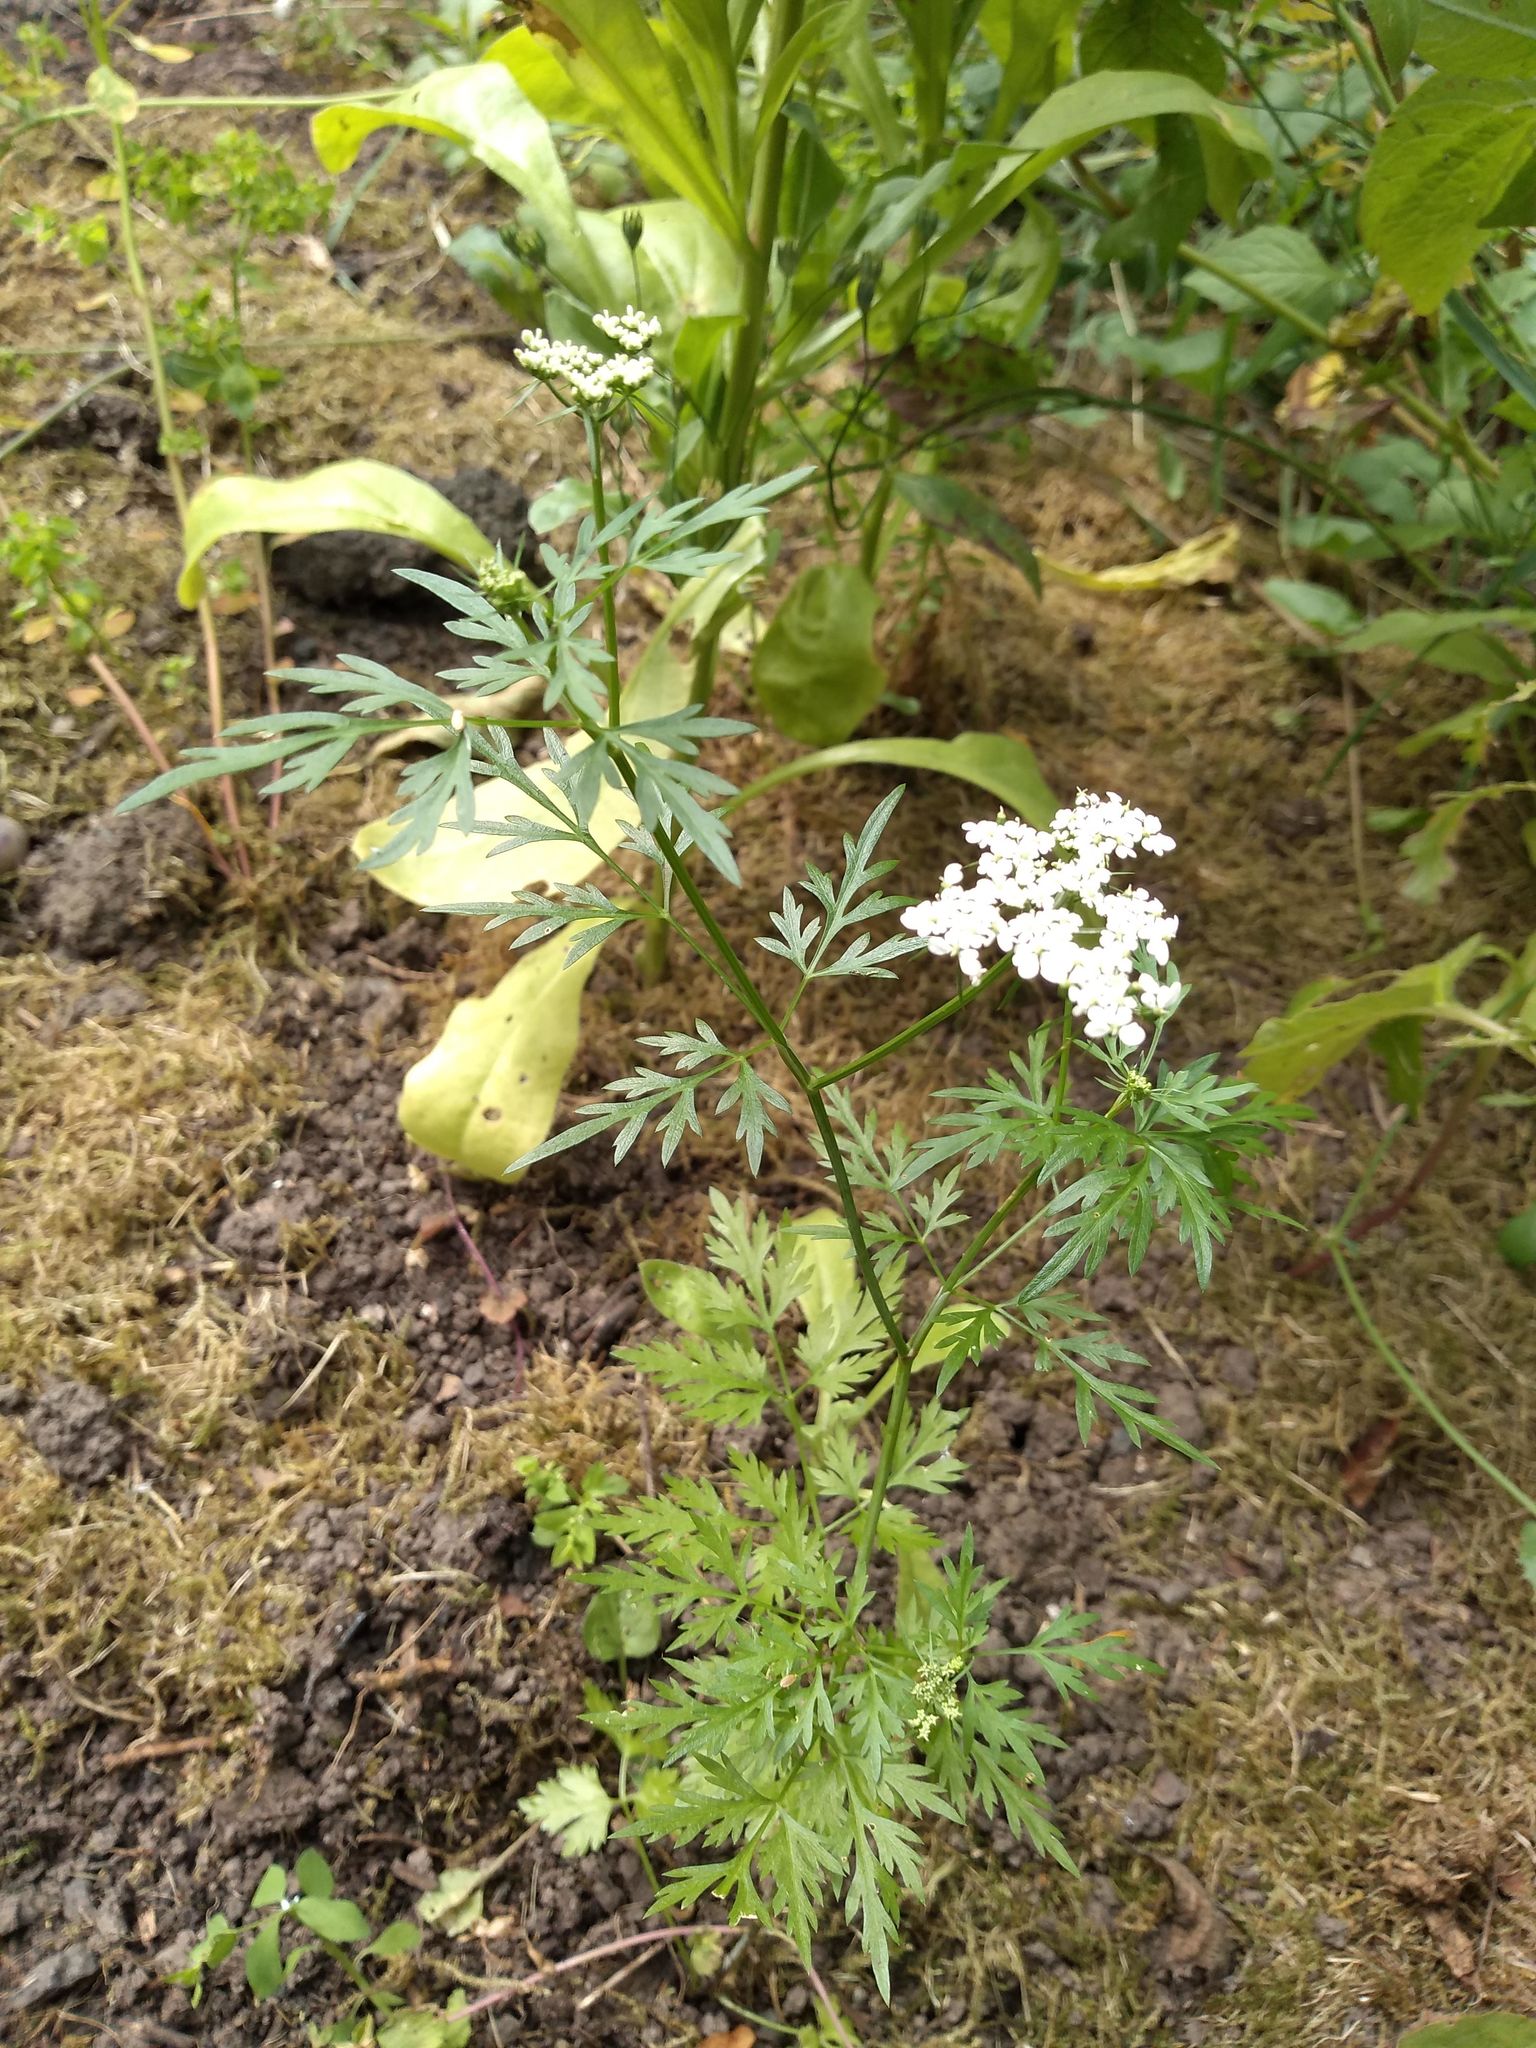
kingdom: Plantae
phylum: Tracheophyta
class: Magnoliopsida
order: Apiales
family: Apiaceae
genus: Aethusa
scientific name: Aethusa cynapium
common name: Fool's parsley
